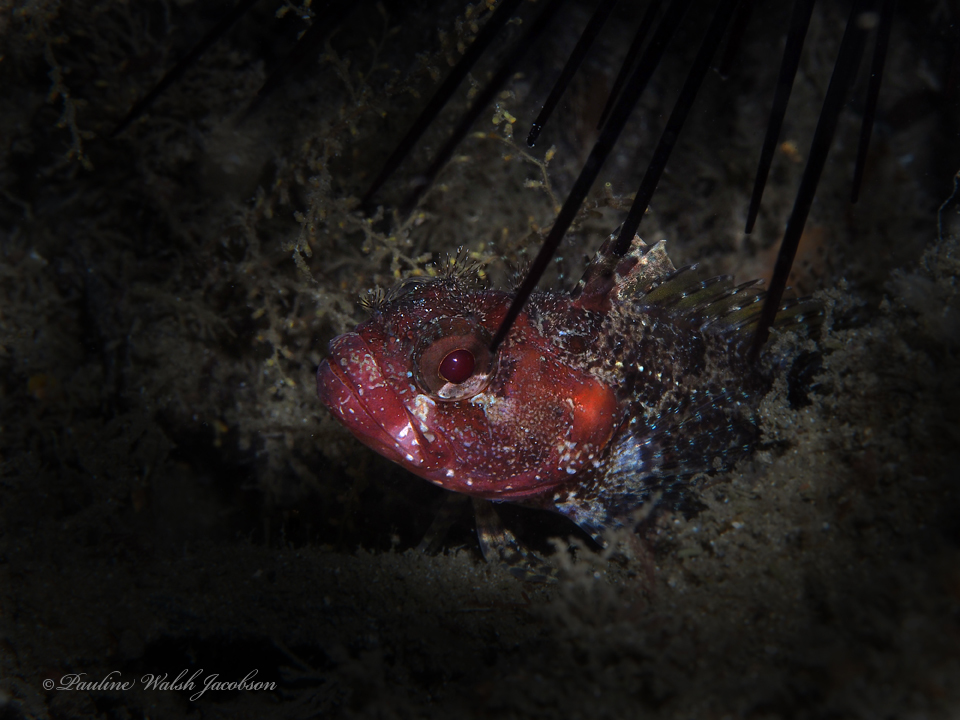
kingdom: Animalia
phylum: Chordata
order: Perciformes
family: Labrisomidae
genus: Gobioclinus
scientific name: Gobioclinus kalisherae
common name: Downy blenny
